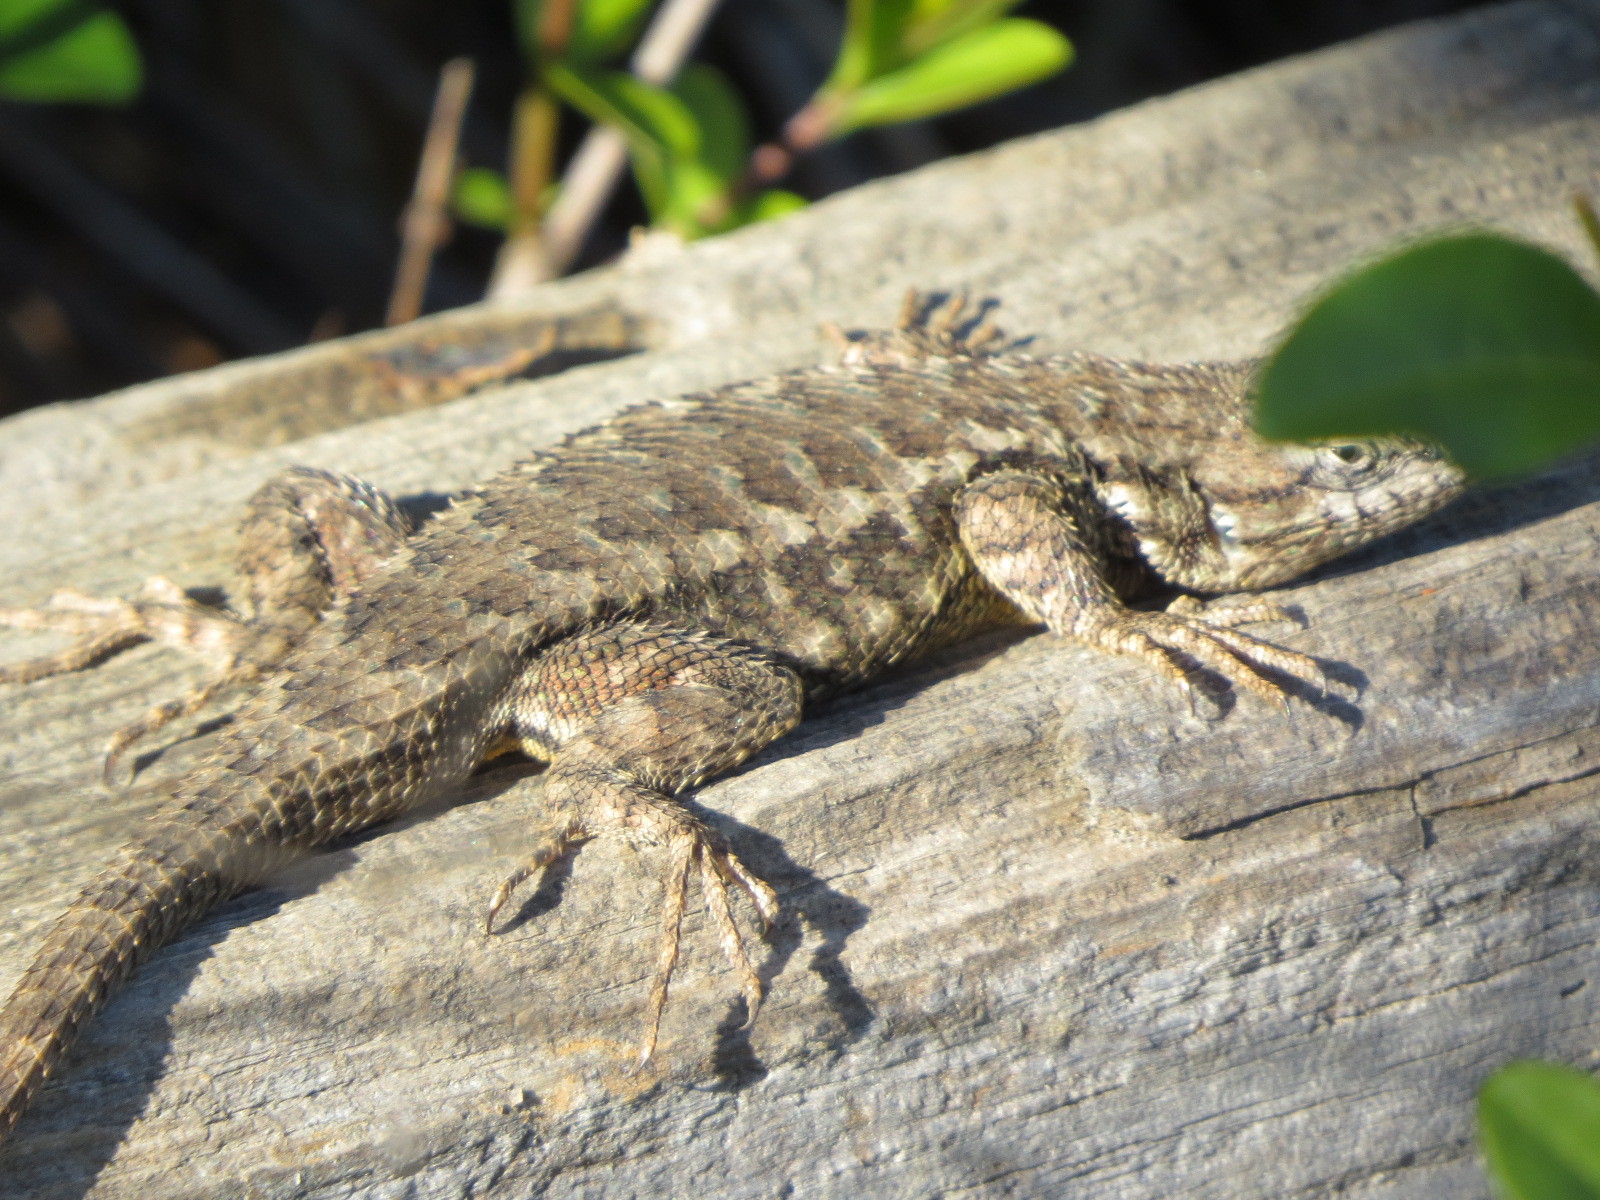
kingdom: Animalia
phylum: Chordata
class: Squamata
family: Phrynosomatidae
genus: Sceloporus
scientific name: Sceloporus occidentalis
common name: Western fence lizard
